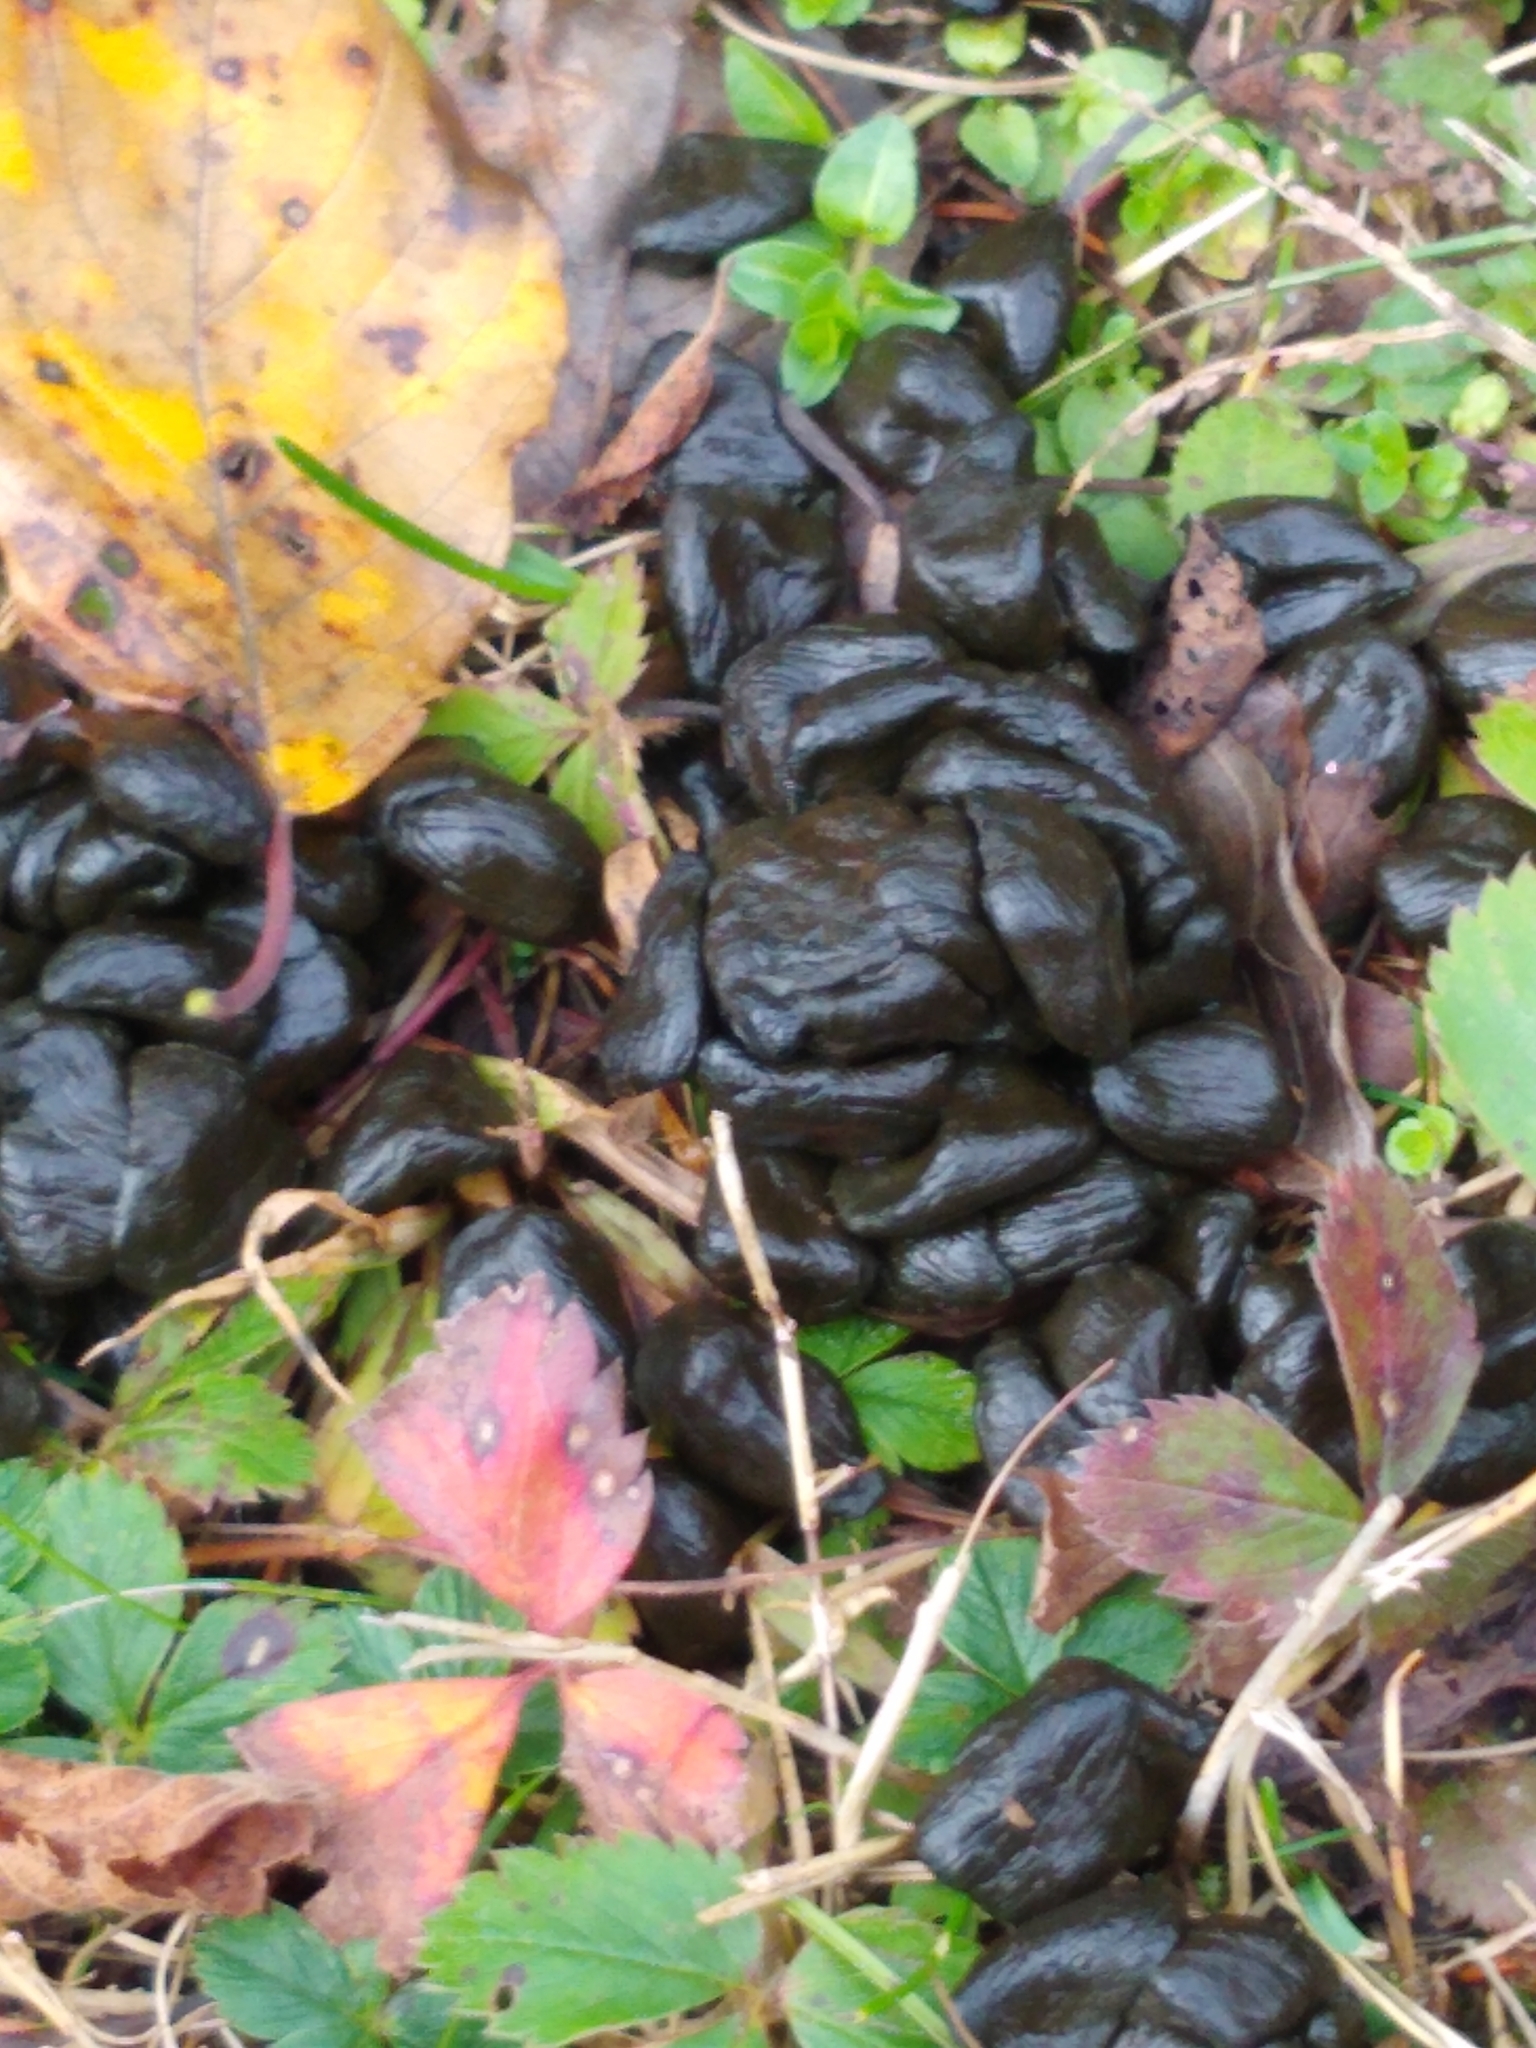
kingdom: Animalia
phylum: Chordata
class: Mammalia
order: Artiodactyla
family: Cervidae
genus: Odocoileus
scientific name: Odocoileus virginianus
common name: White-tailed deer
